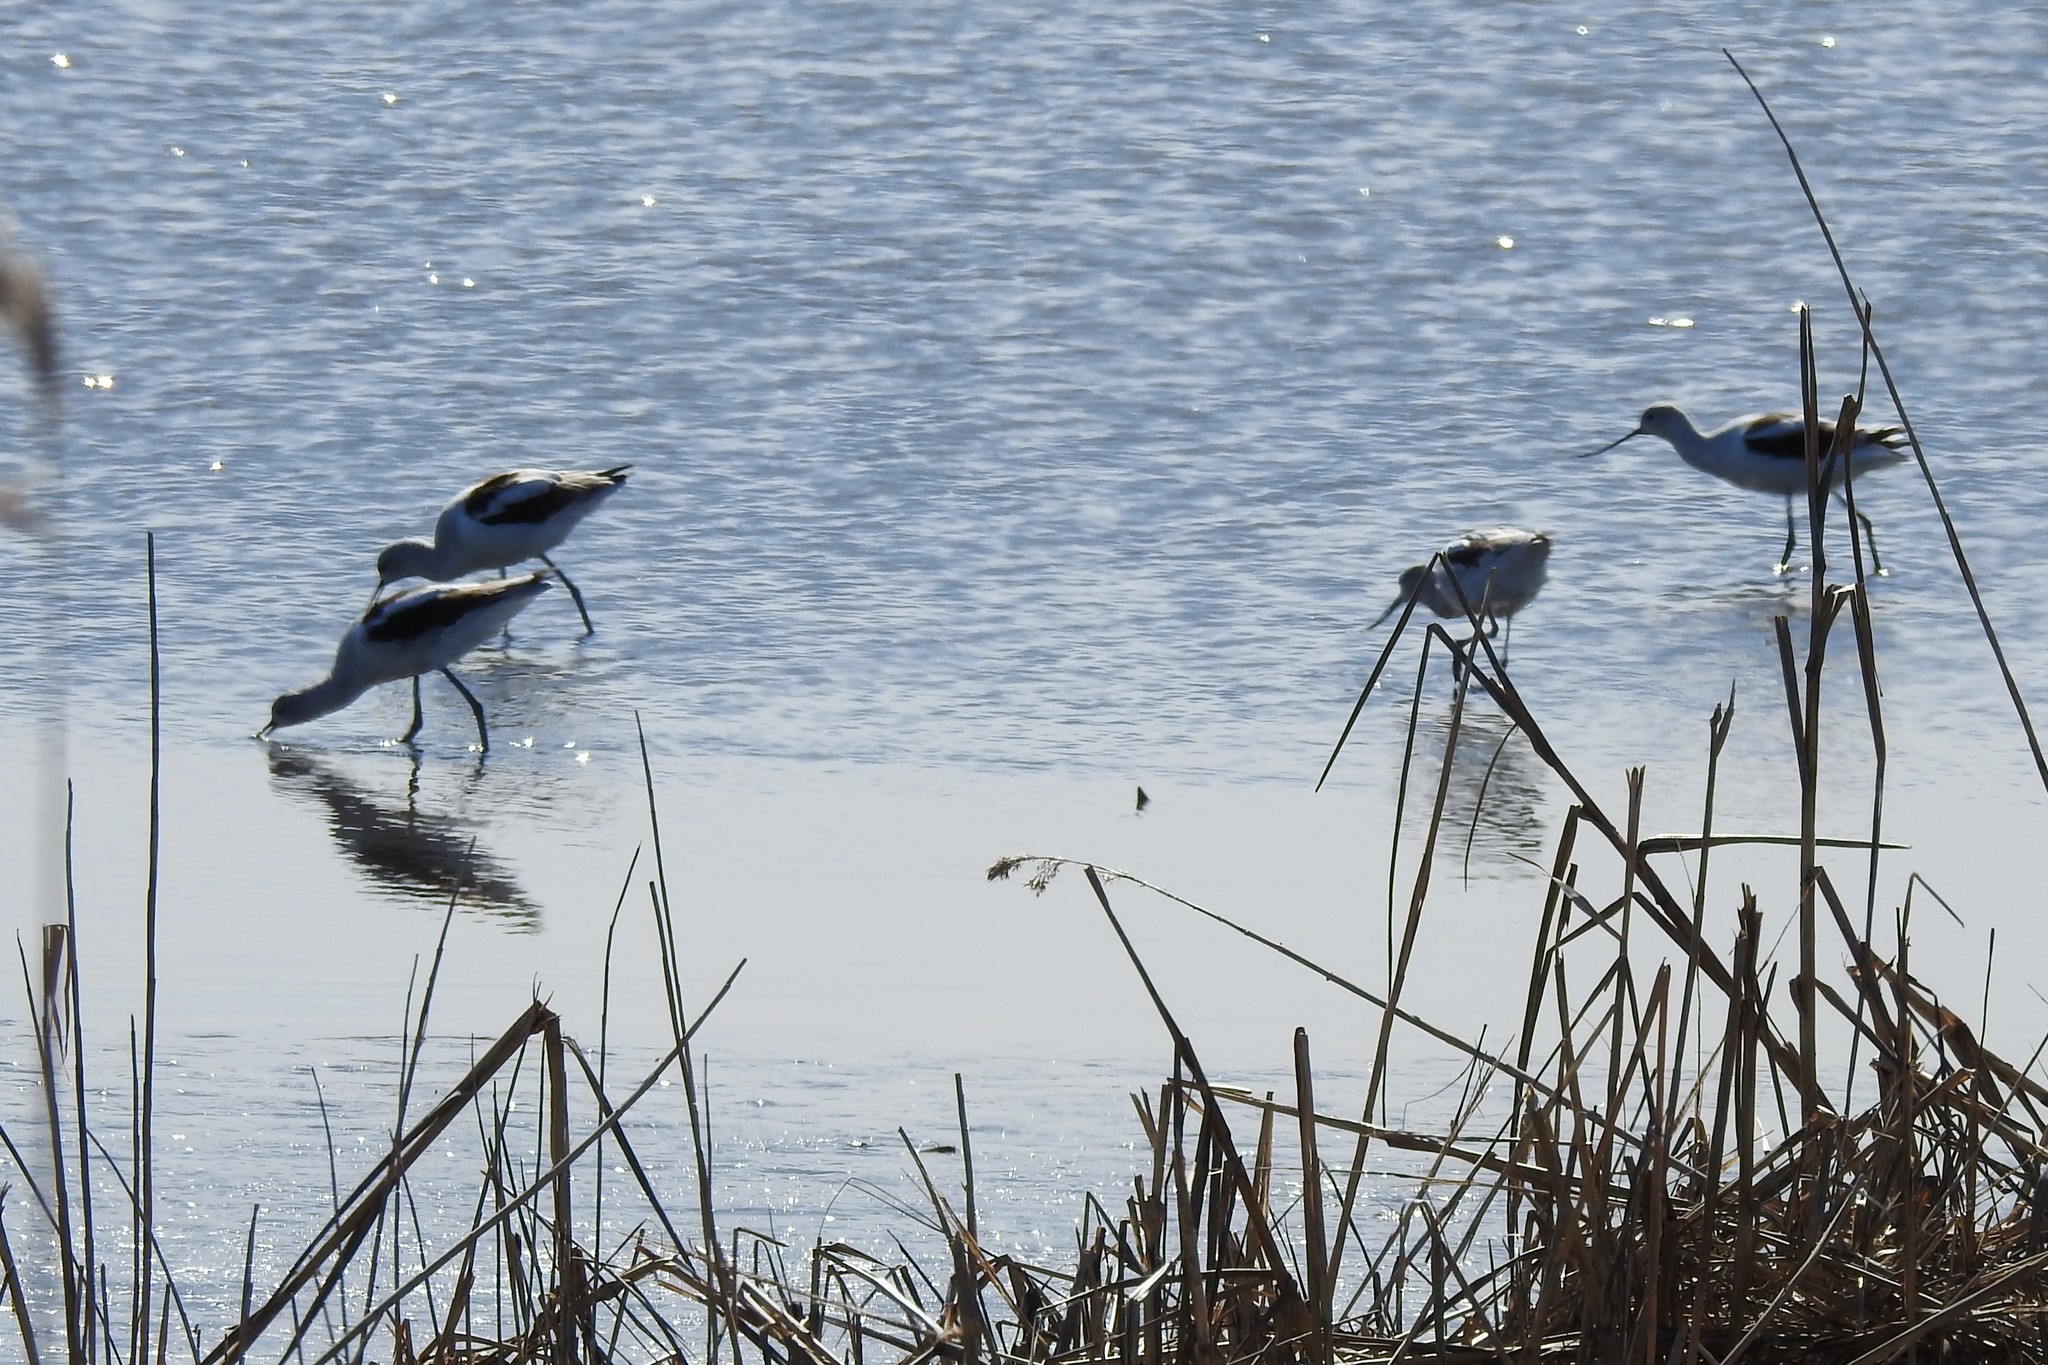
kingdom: Animalia
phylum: Chordata
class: Aves
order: Charadriiformes
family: Recurvirostridae
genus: Recurvirostra
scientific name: Recurvirostra americana
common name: American avocet
